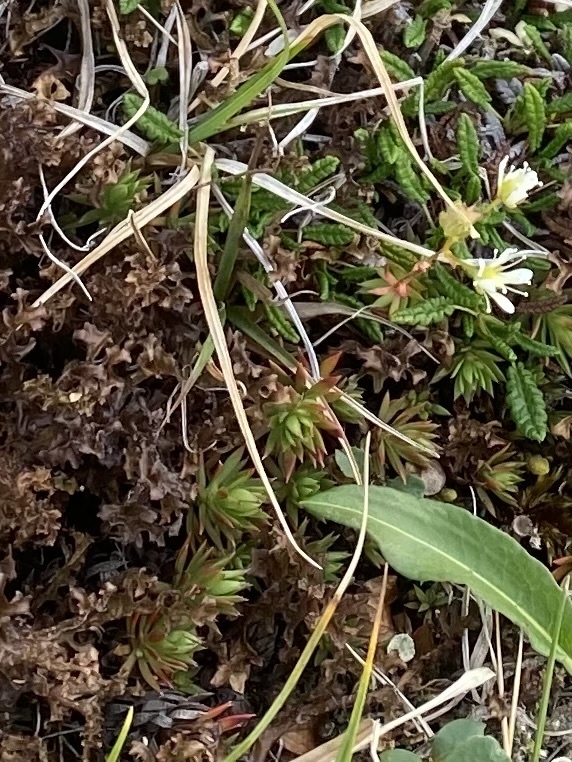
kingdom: Plantae
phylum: Tracheophyta
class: Magnoliopsida
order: Saxifragales
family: Saxifragaceae
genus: Saxifraga
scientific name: Saxifraga
